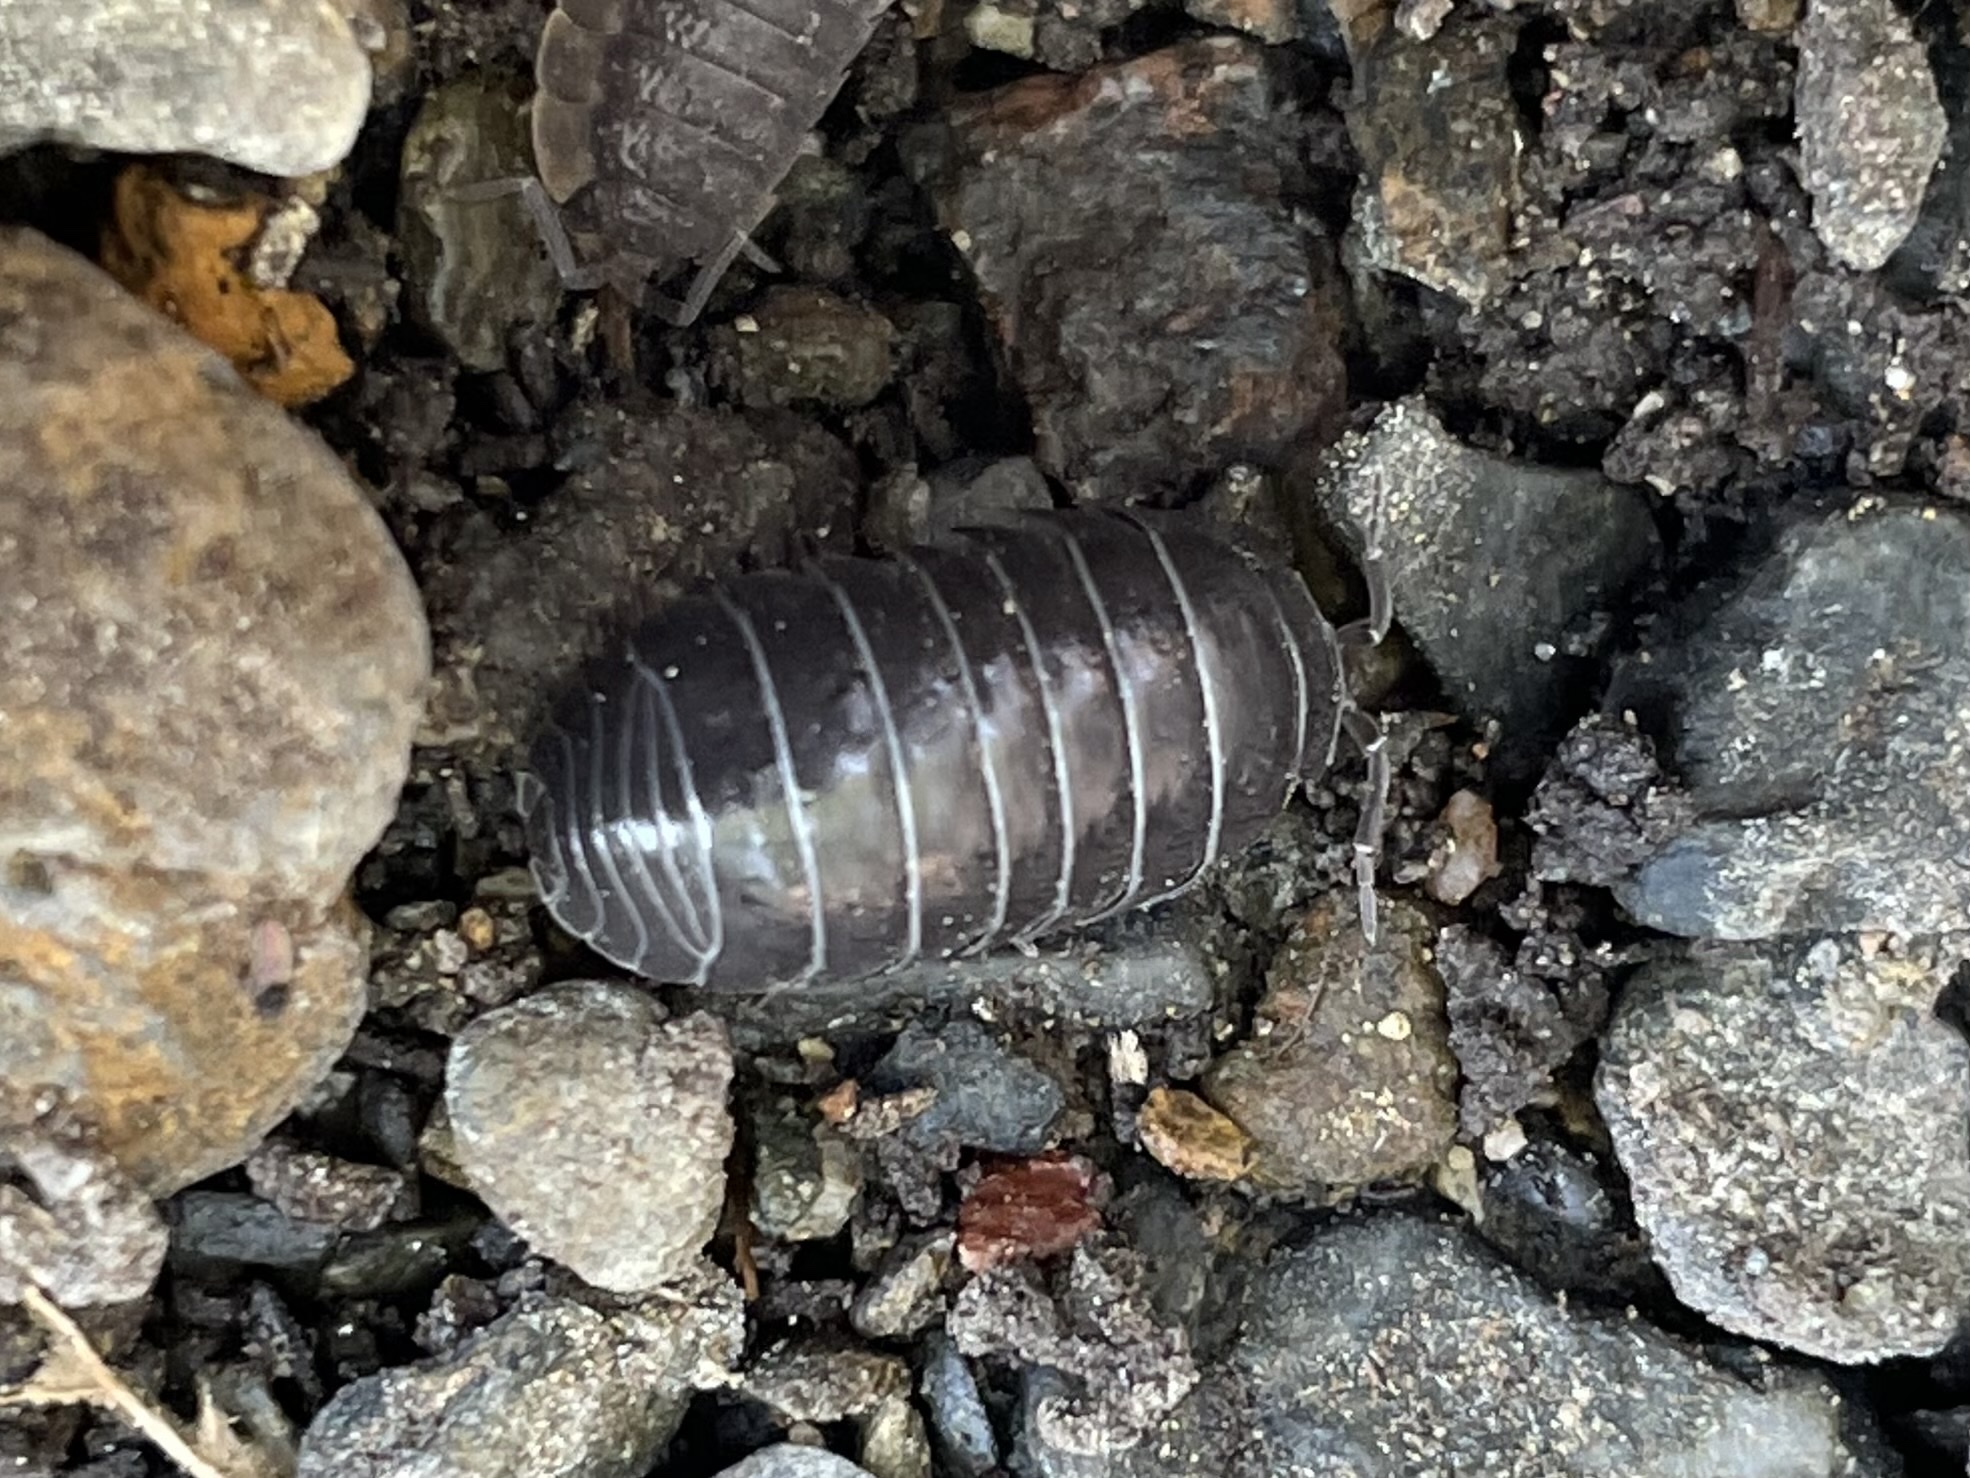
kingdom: Animalia
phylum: Arthropoda
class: Malacostraca
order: Isopoda
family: Armadillidiidae
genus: Armadillidium
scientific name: Armadillidium vulgare
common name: Common pill woodlouse
